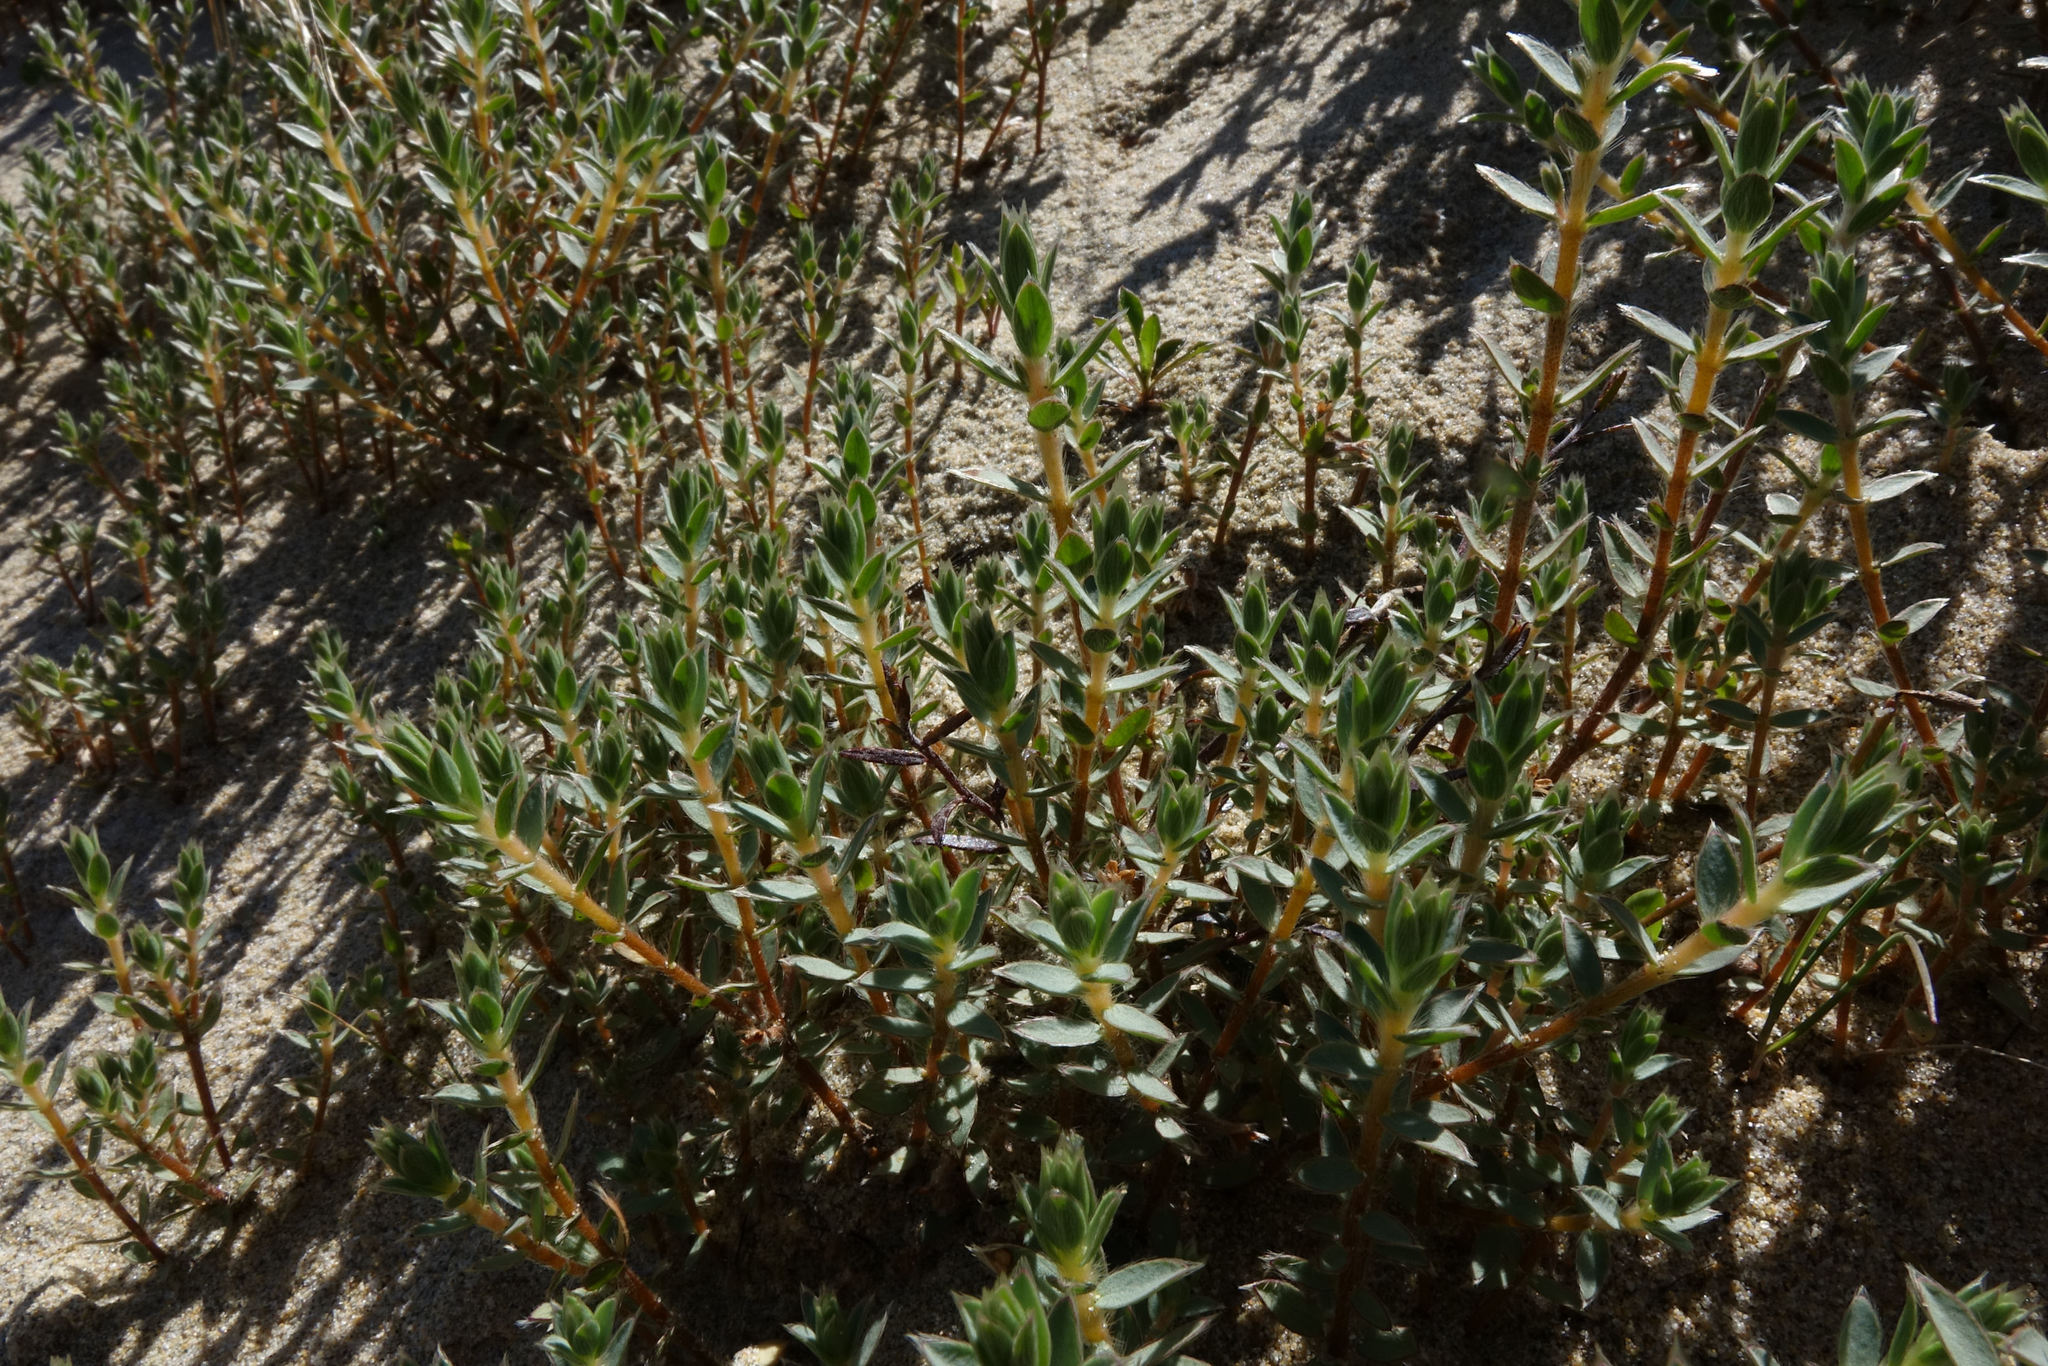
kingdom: Plantae
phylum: Tracheophyta
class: Magnoliopsida
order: Malvales
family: Thymelaeaceae
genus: Pimelea
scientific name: Pimelea lyallii
